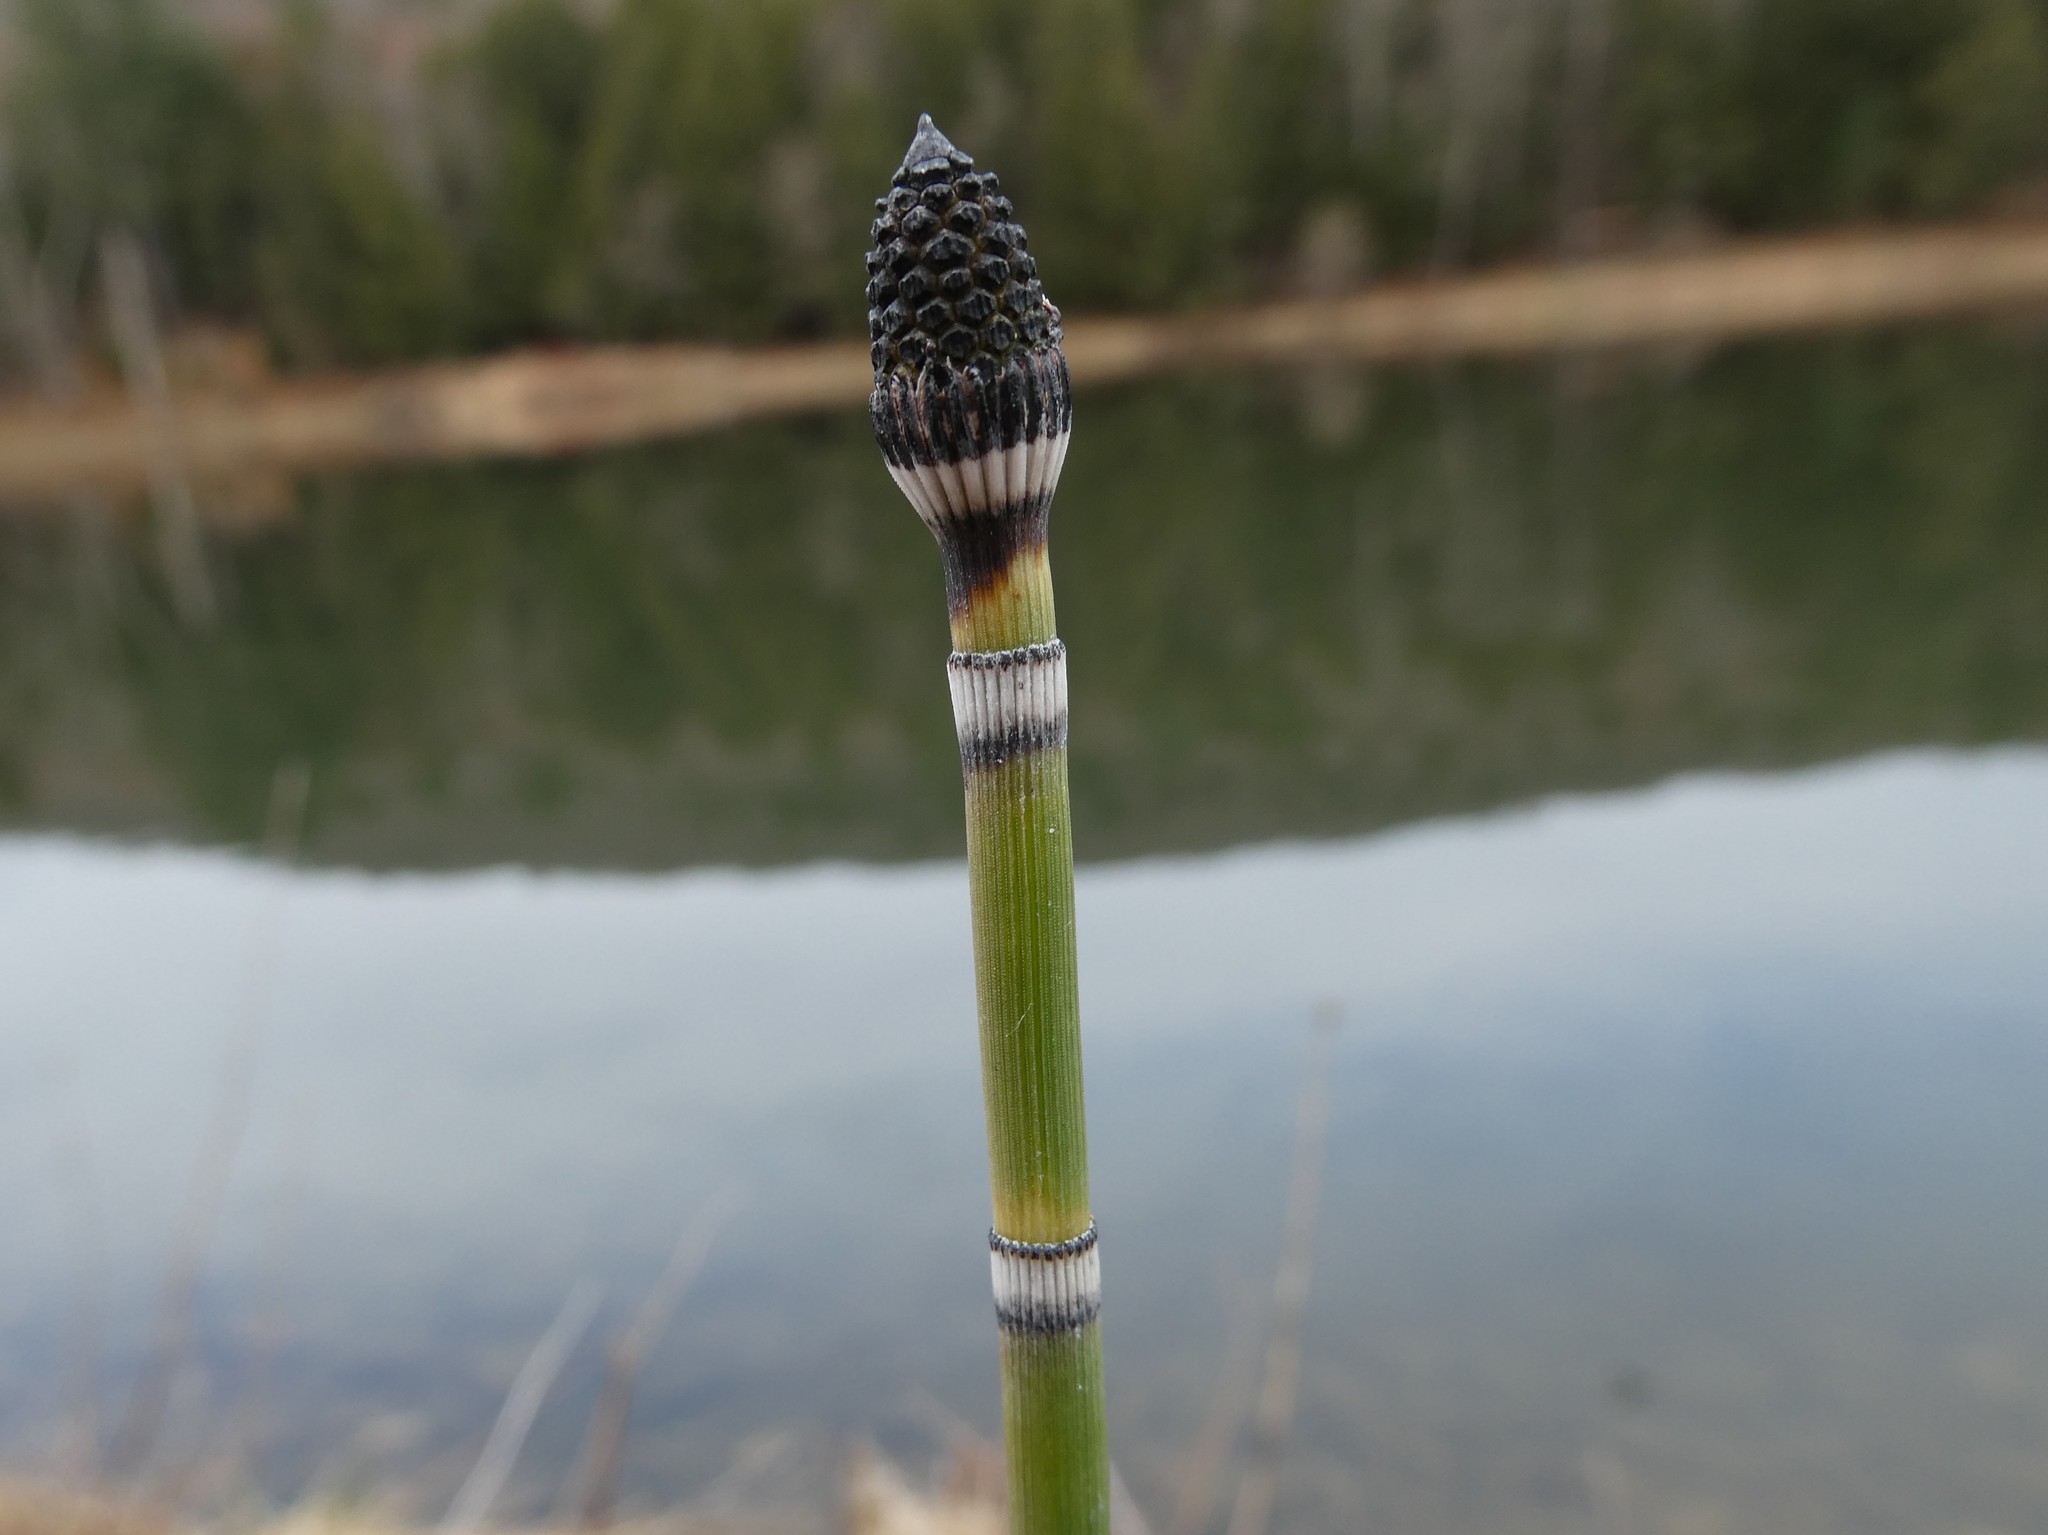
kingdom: Plantae
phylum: Tracheophyta
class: Polypodiopsida
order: Equisetales
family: Equisetaceae
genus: Equisetum
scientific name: Equisetum hyemale
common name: Rough horsetail
